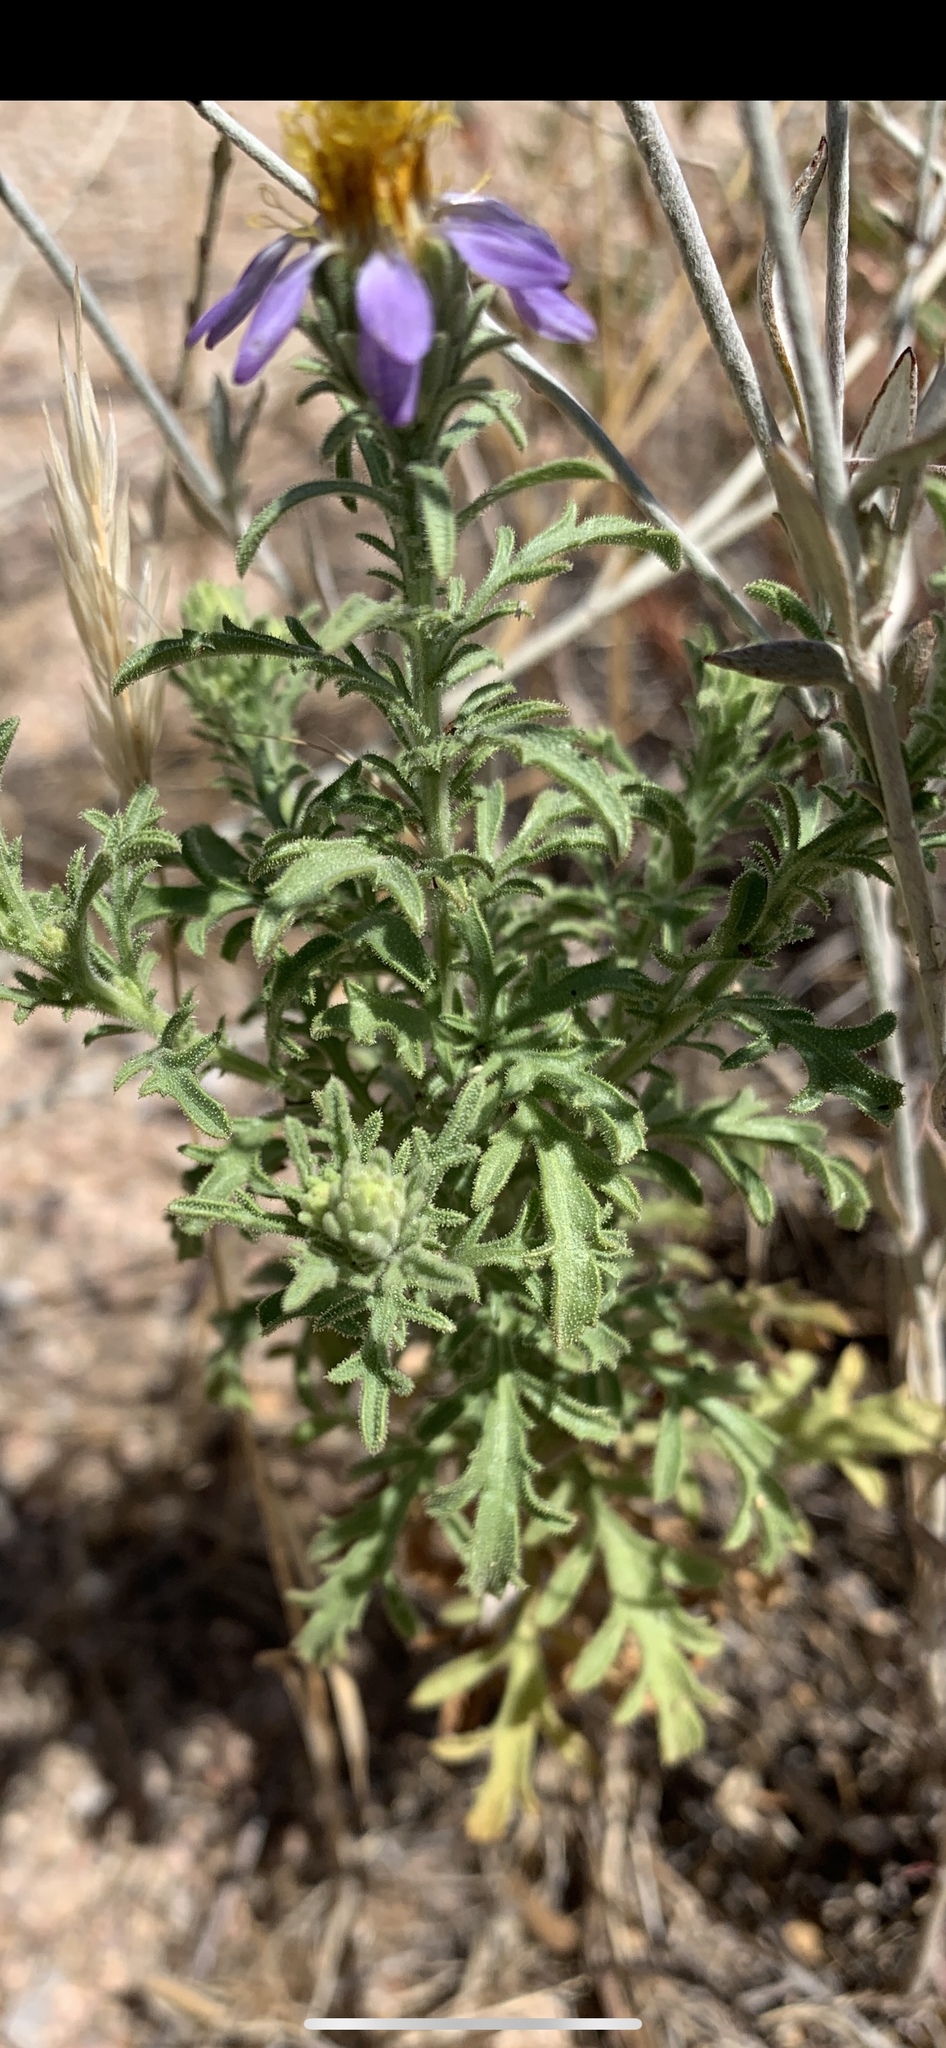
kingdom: Plantae
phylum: Tracheophyta
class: Magnoliopsida
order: Asterales
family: Asteraceae
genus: Machaeranthera
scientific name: Machaeranthera tagetina
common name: Mesa tansy-aster
